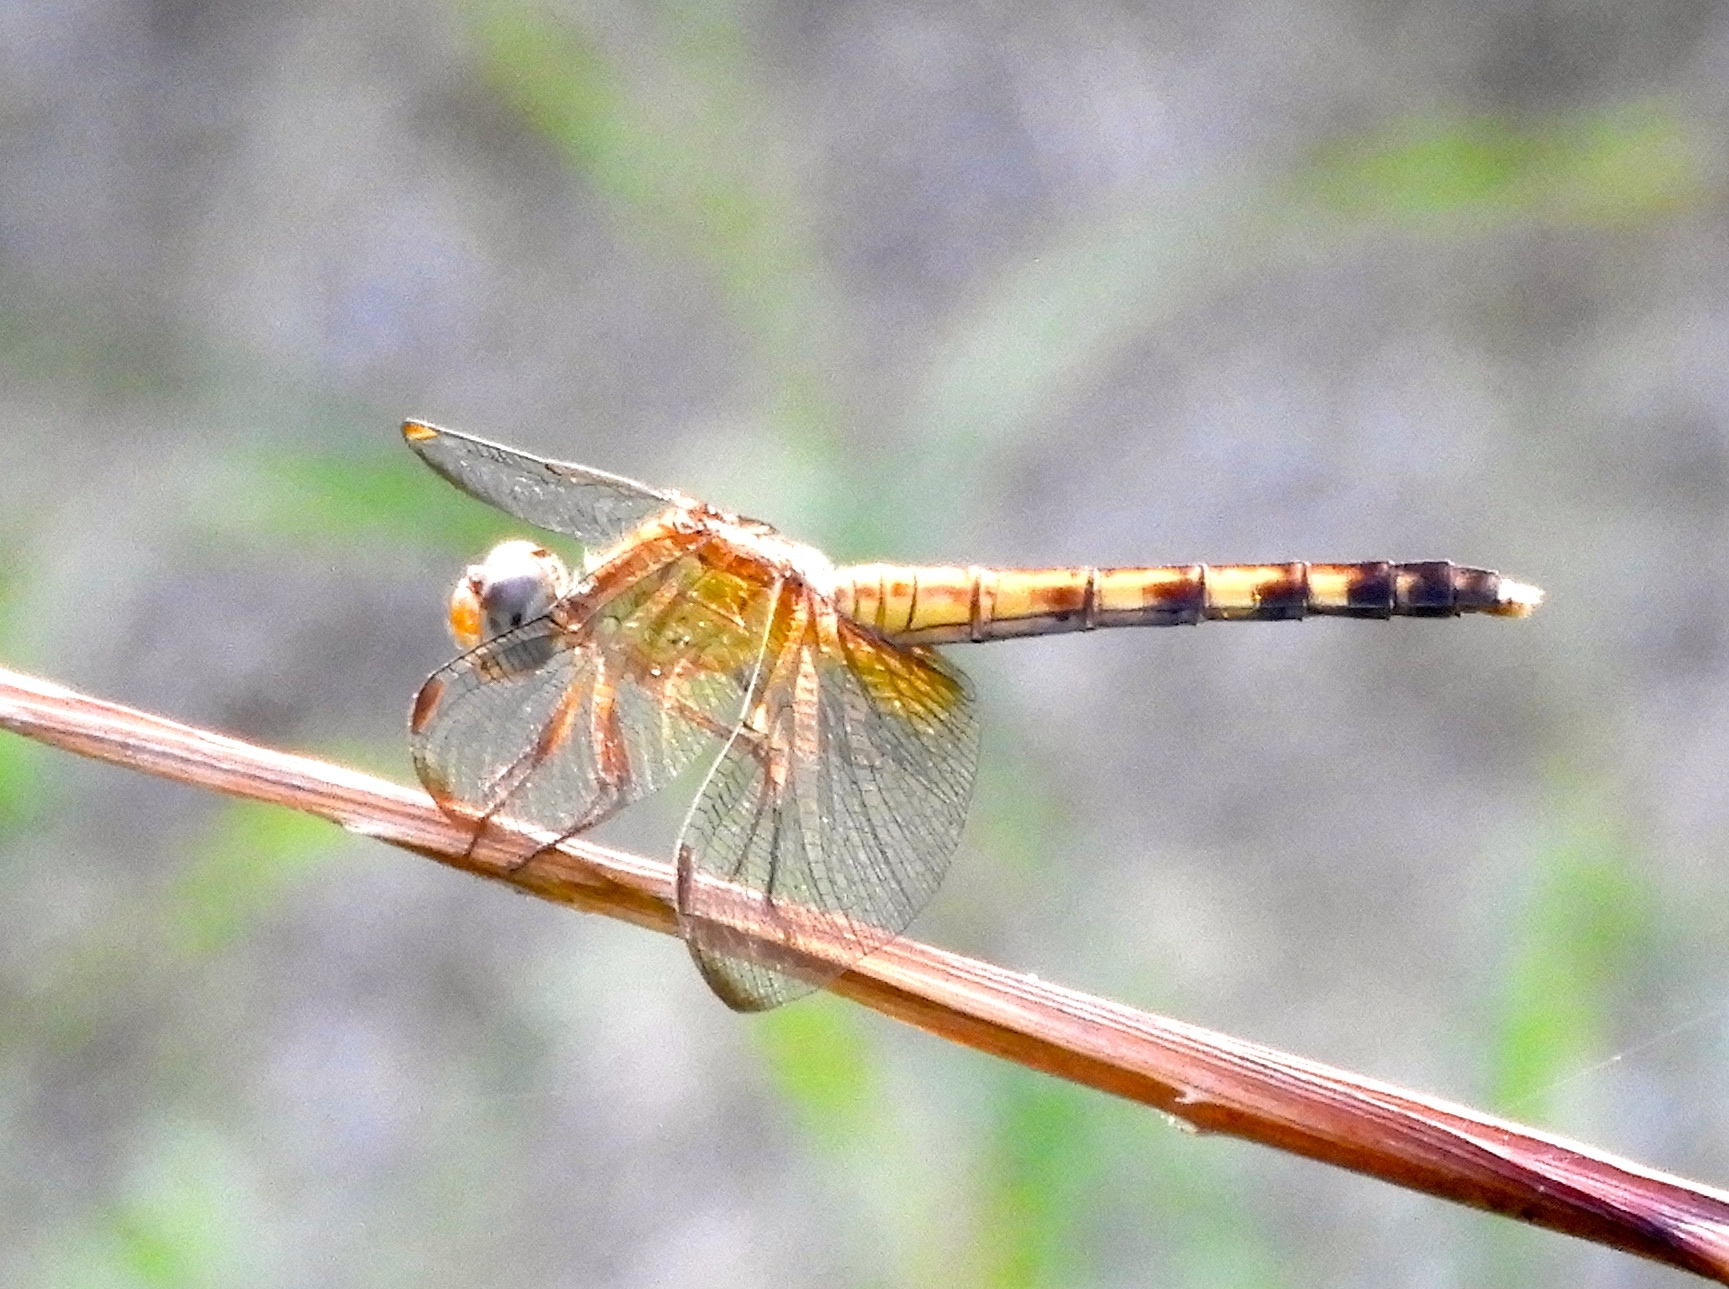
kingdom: Animalia
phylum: Arthropoda
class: Insecta
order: Odonata
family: Libellulidae
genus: Erythrodiplax
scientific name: Erythrodiplax funerea
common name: Black-winged dragonlet
